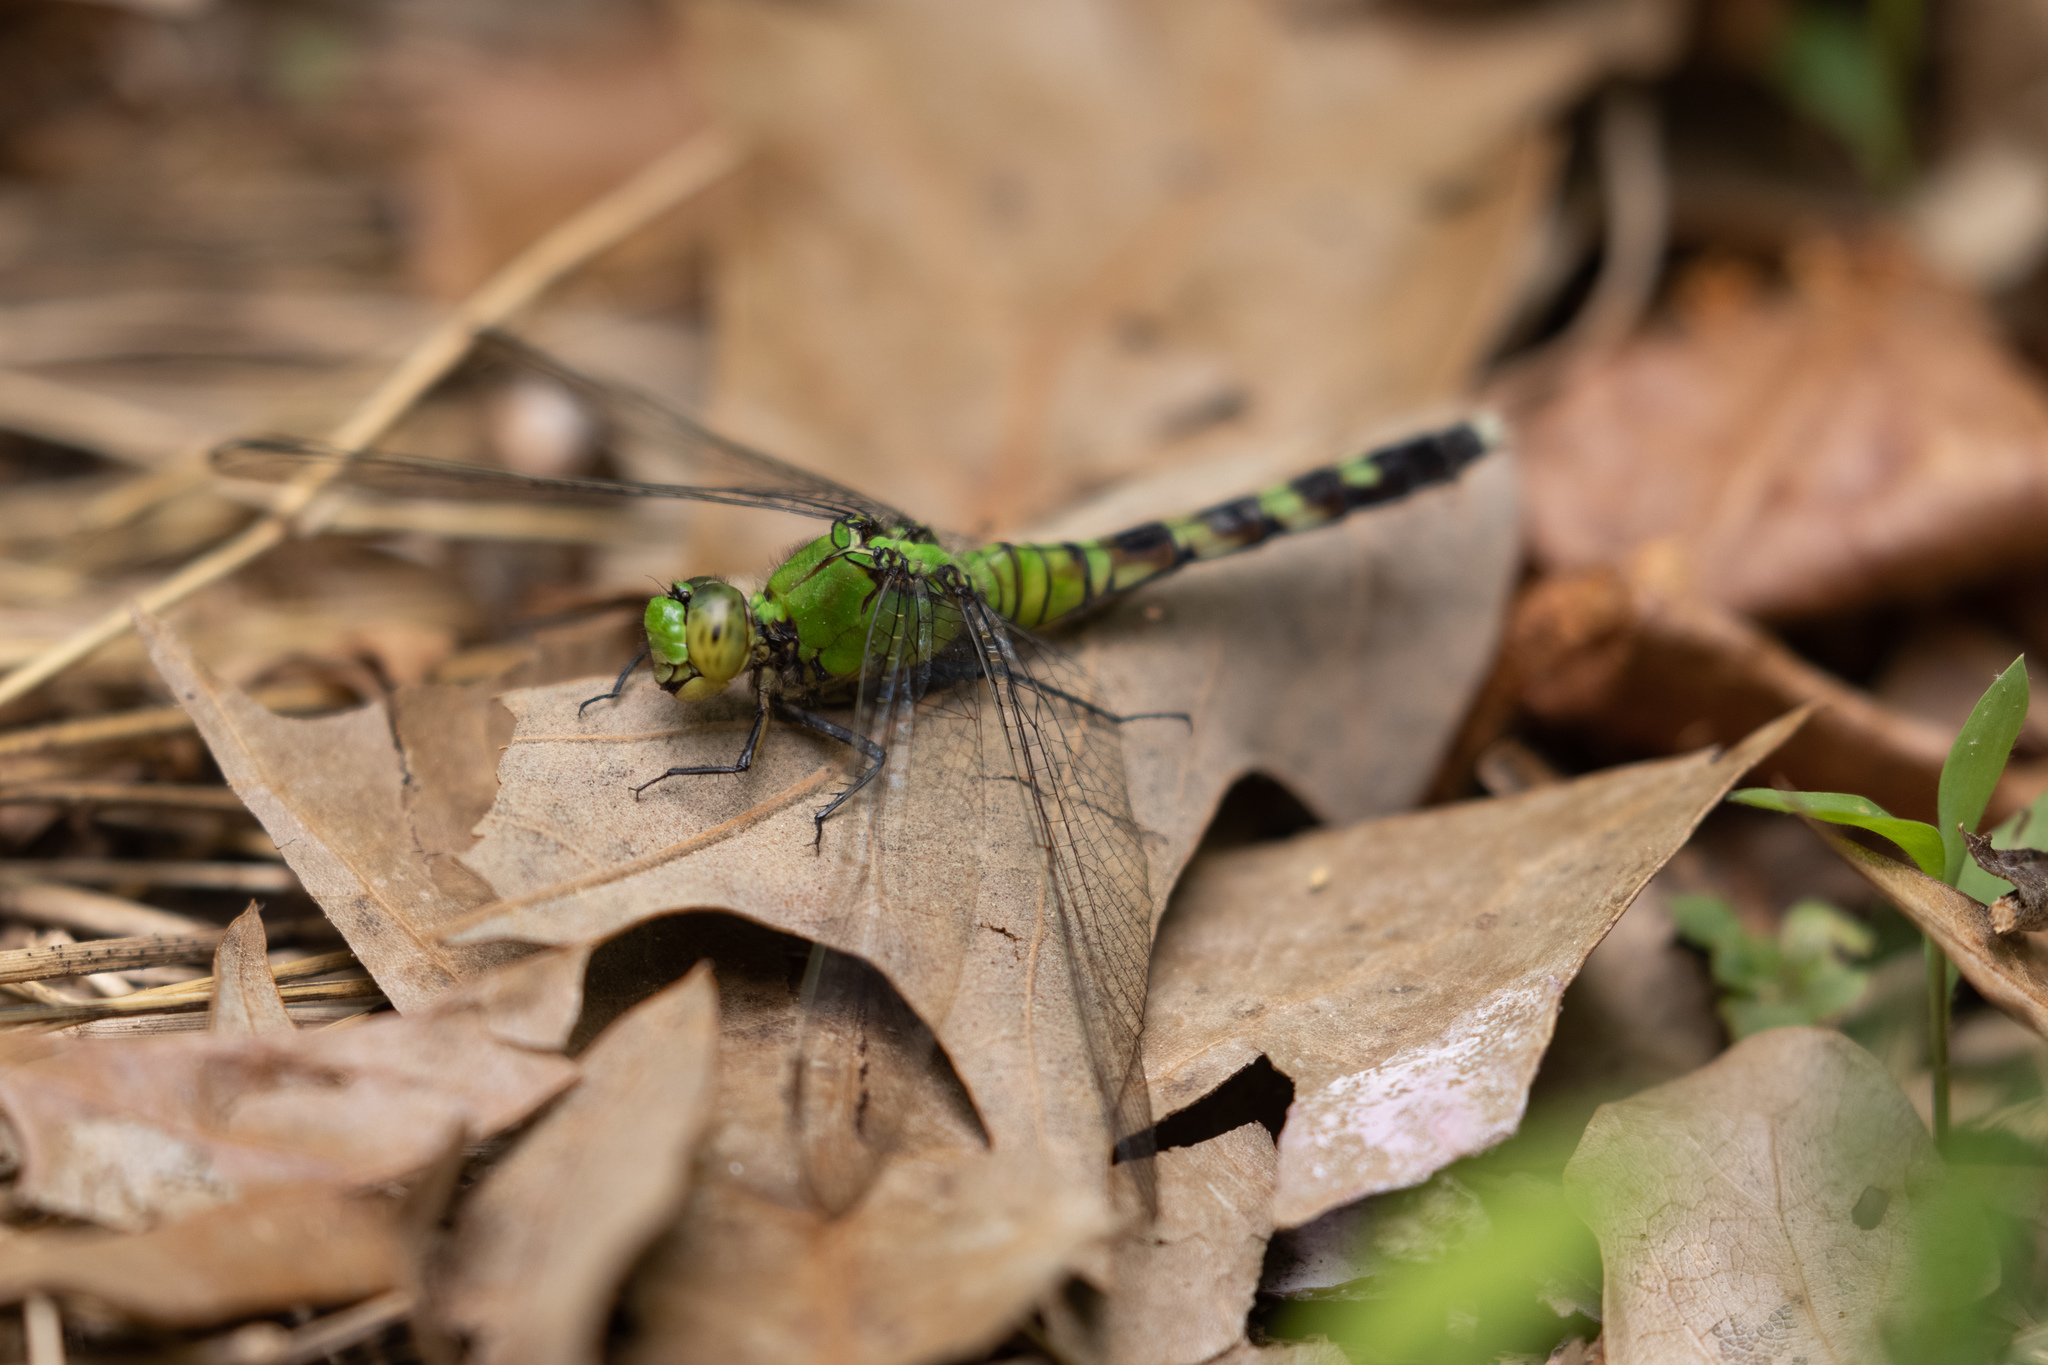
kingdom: Animalia
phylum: Arthropoda
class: Insecta
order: Odonata
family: Libellulidae
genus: Erythemis
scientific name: Erythemis simplicicollis
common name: Eastern pondhawk
